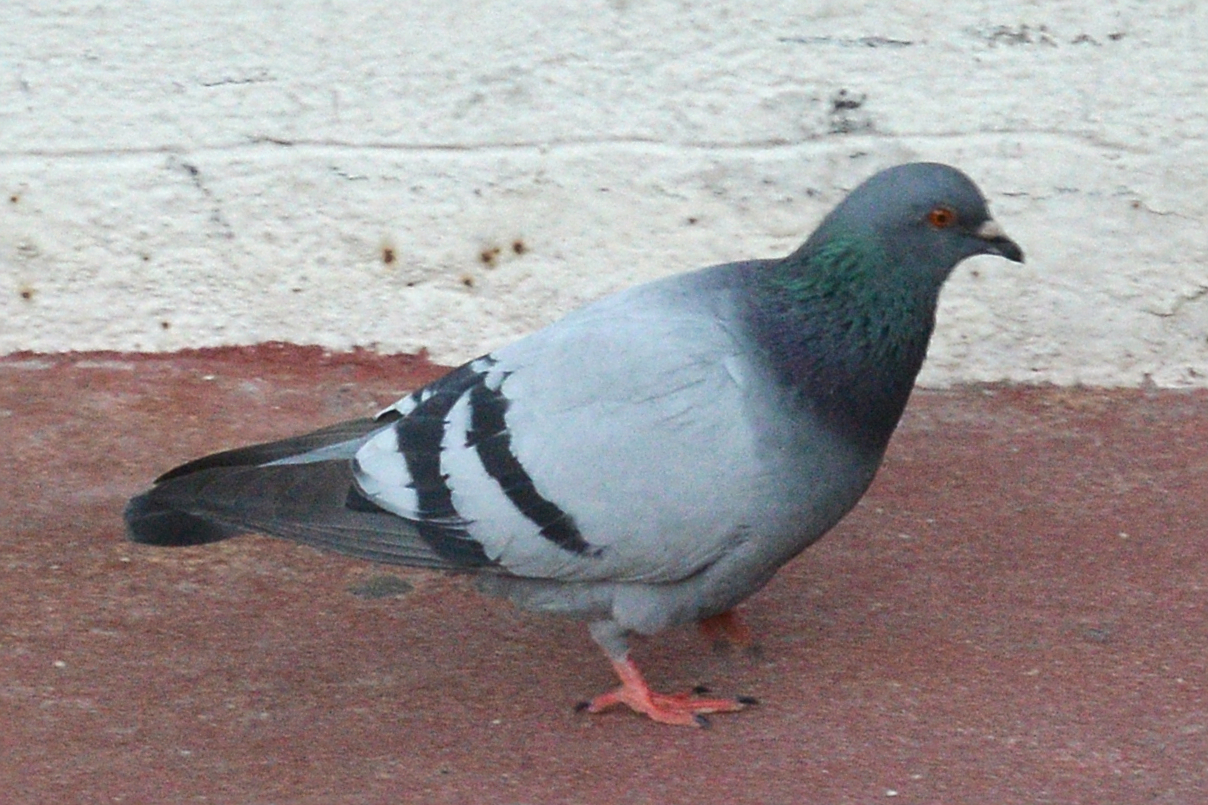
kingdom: Animalia
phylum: Chordata
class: Aves
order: Columbiformes
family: Columbidae
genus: Columba
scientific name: Columba livia
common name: Rock pigeon
